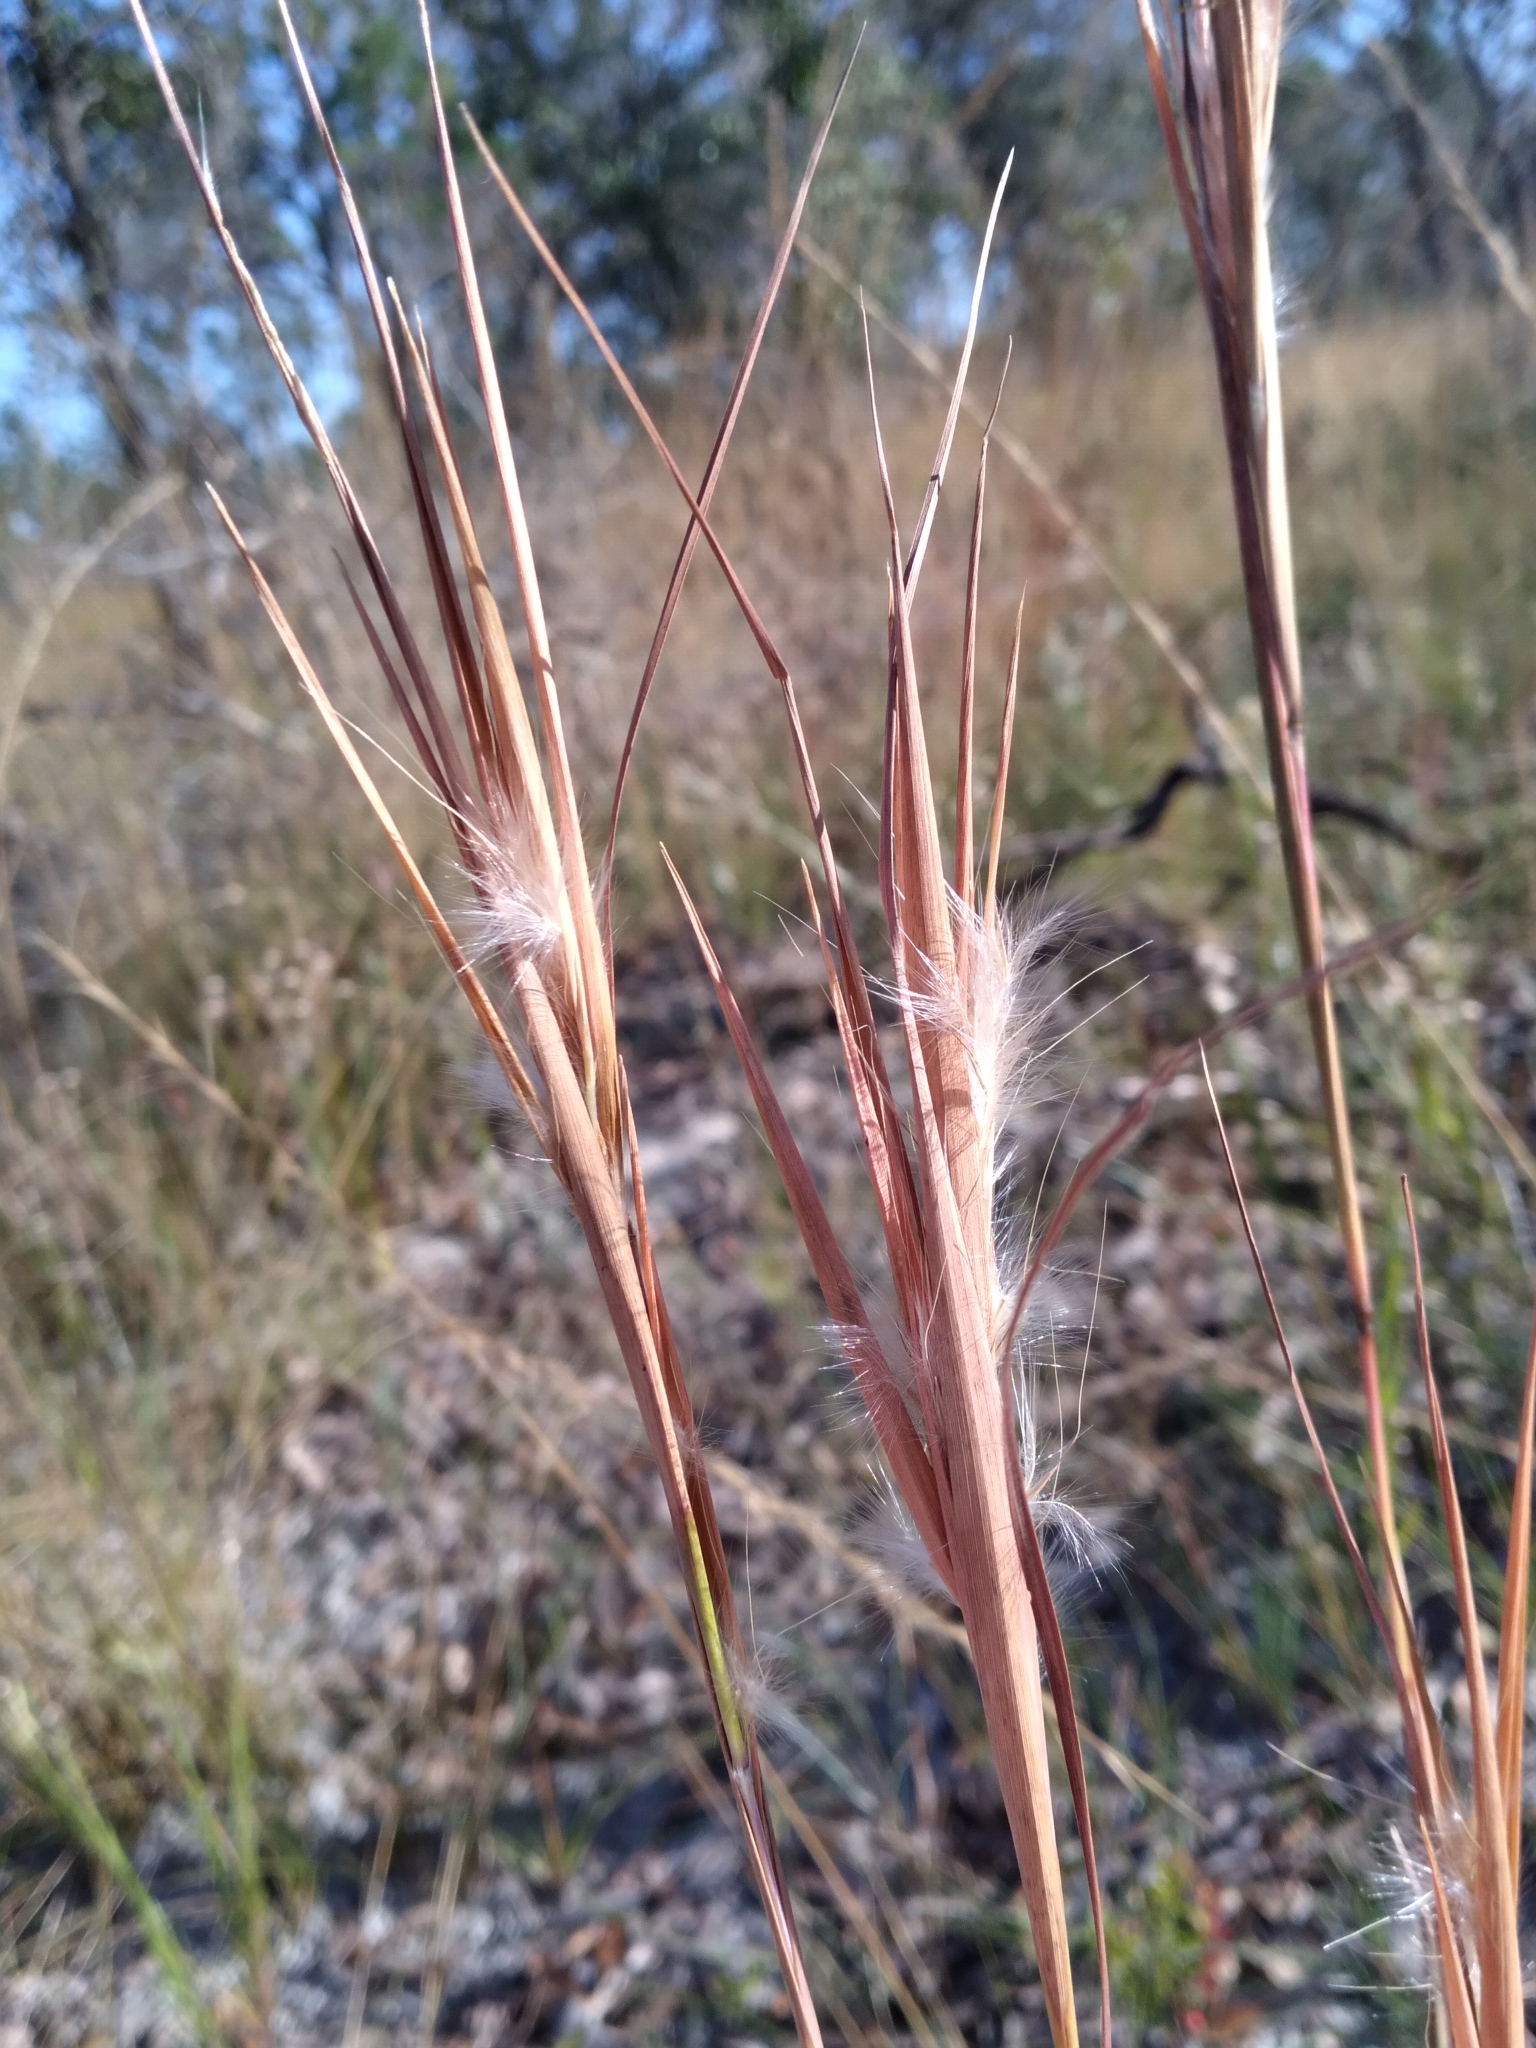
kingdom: Plantae
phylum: Tracheophyta
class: Liliopsida
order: Poales
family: Poaceae
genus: Andropogon
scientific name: Andropogon gyrans
